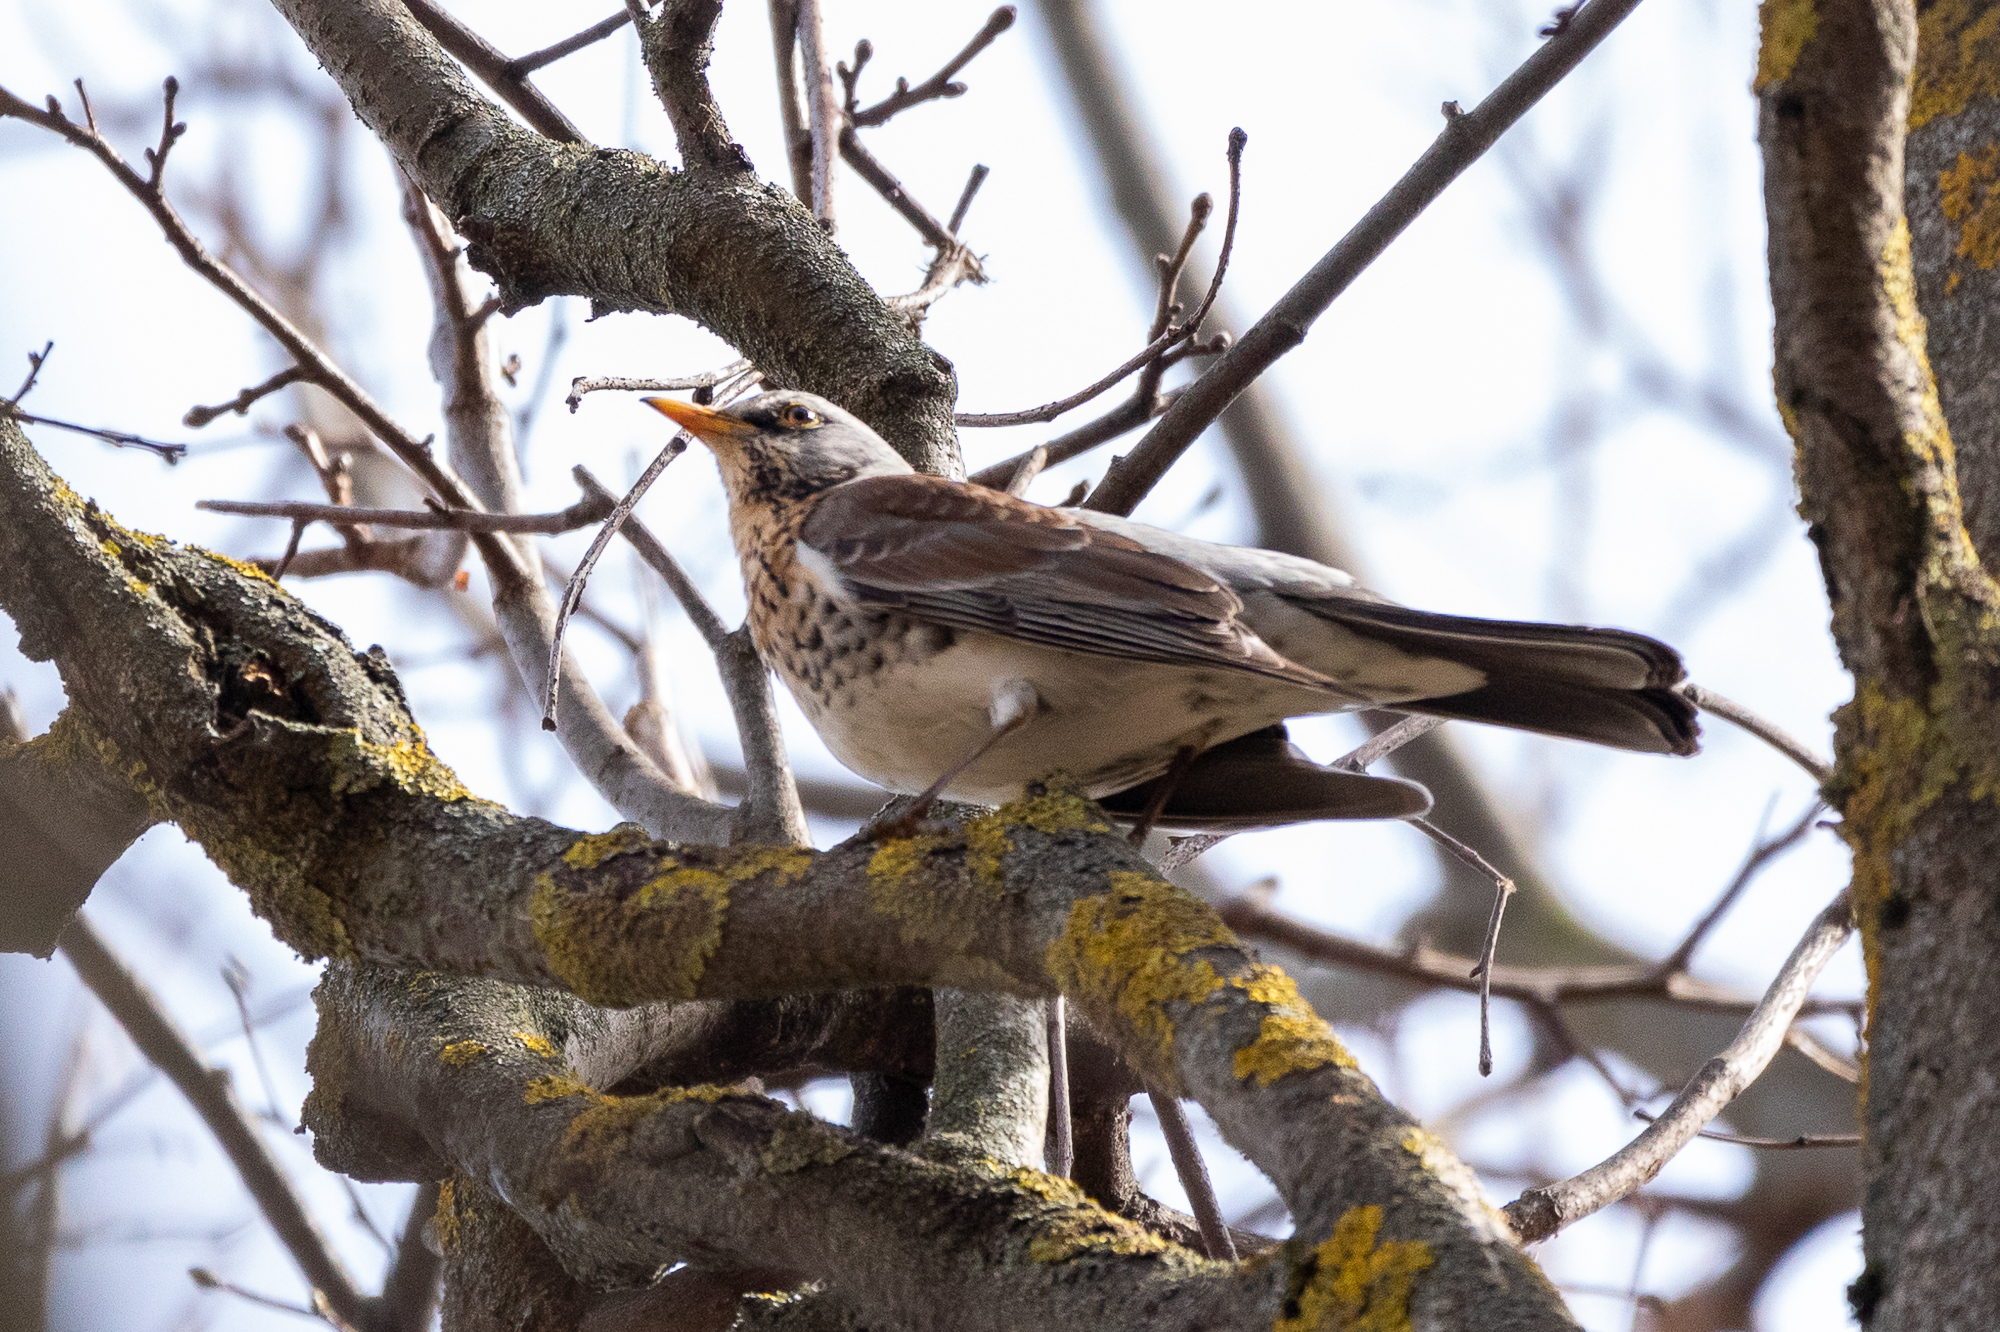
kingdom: Animalia
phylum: Chordata
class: Aves
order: Passeriformes
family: Turdidae
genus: Turdus
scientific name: Turdus pilaris
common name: Fieldfare
